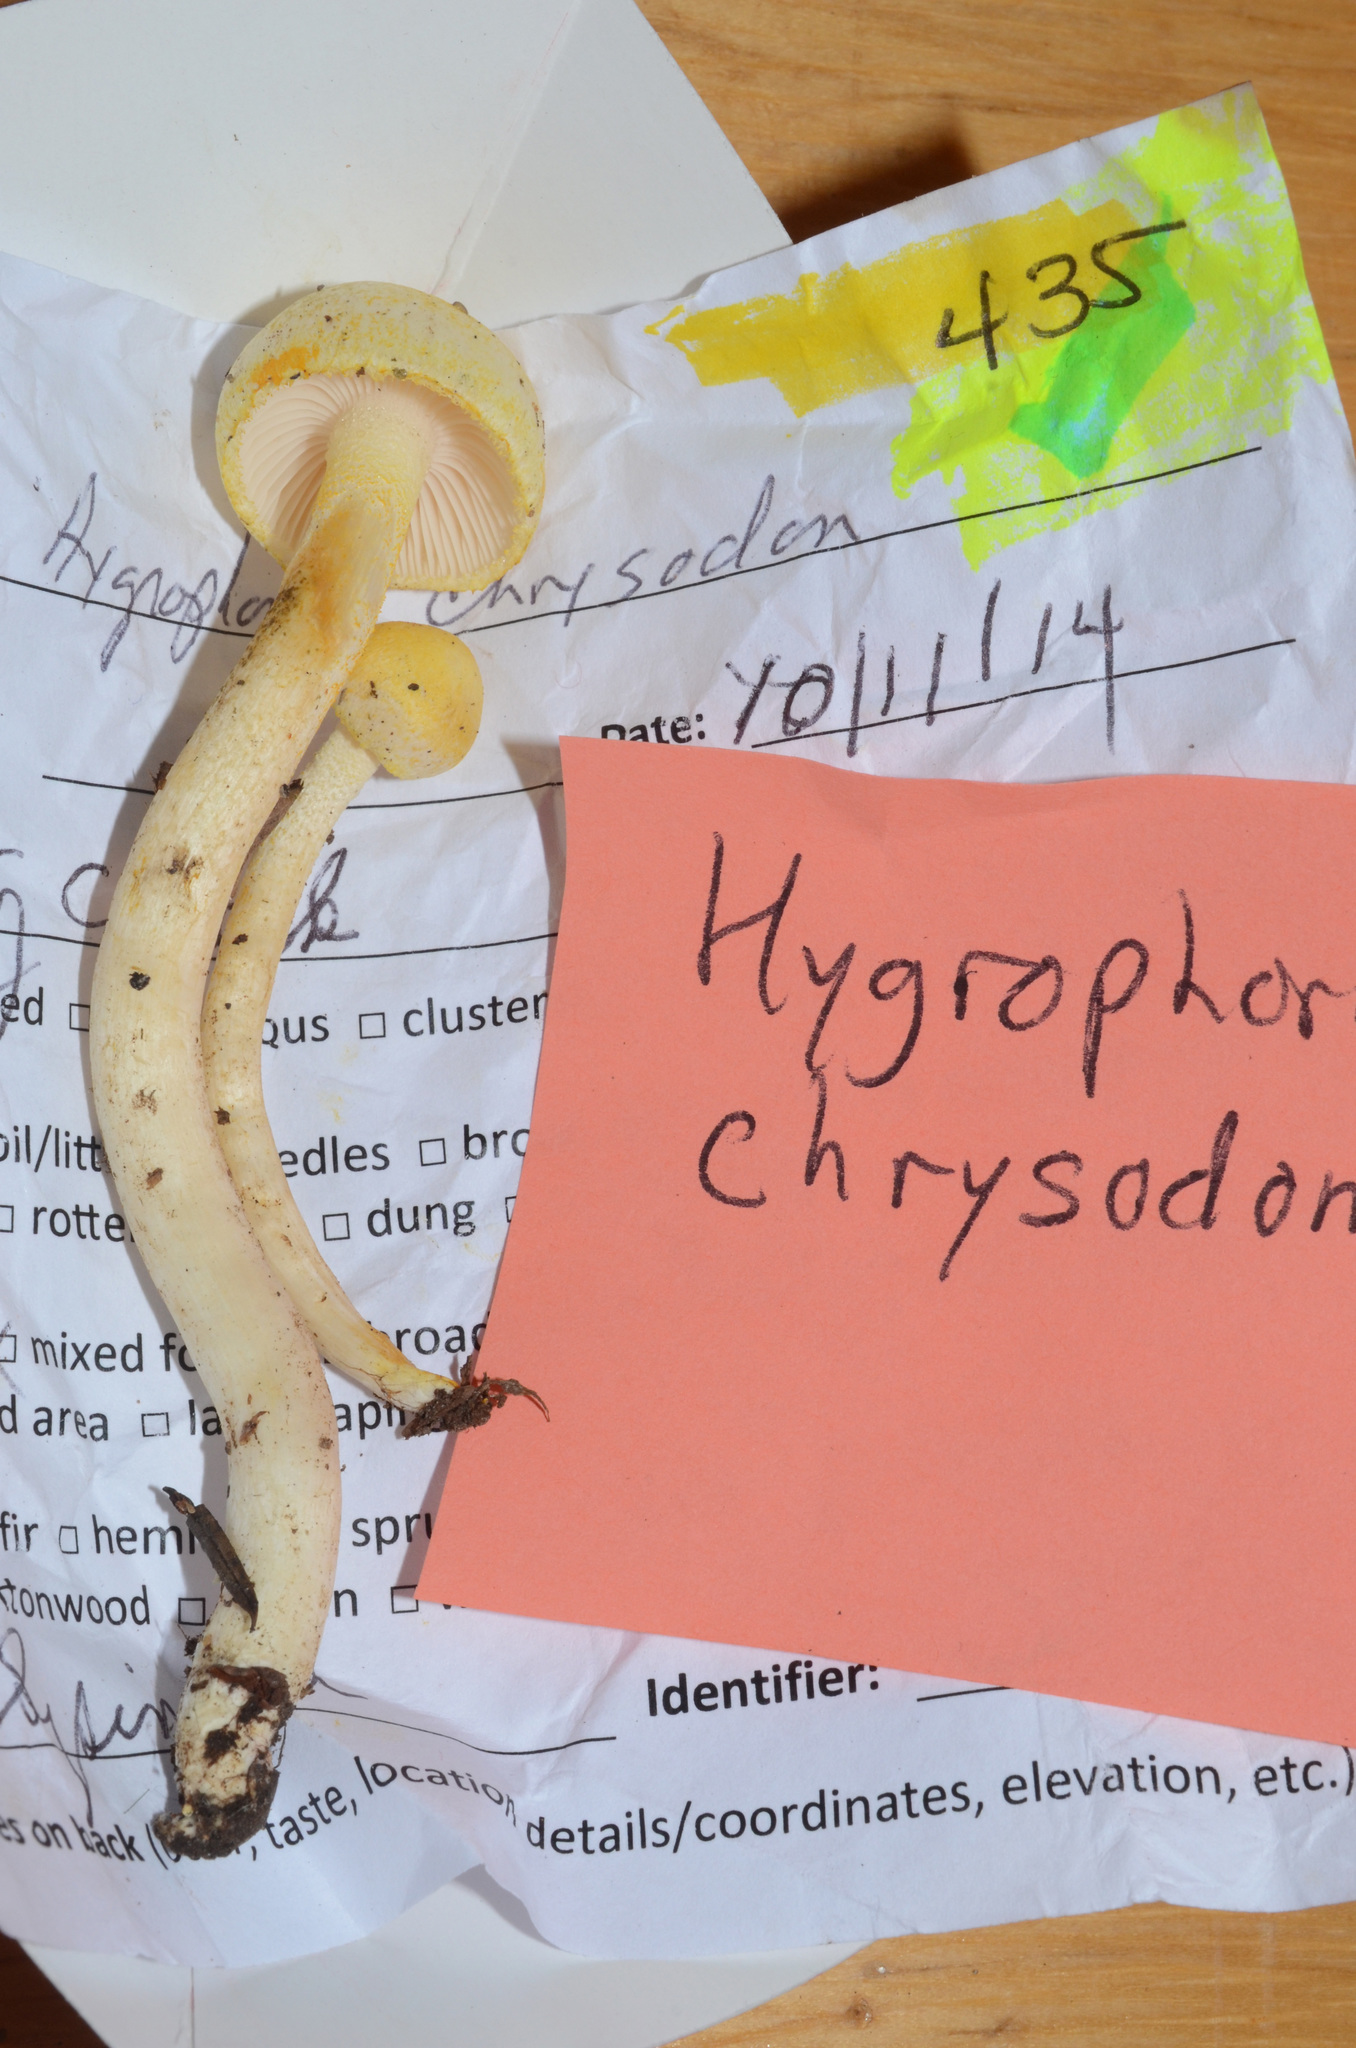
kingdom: Fungi
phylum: Basidiomycota
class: Agaricomycetes
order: Agaricales
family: Hygrophoraceae
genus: Hygrophorus
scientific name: Hygrophorus chrysodon
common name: Gold flecked woodwax
